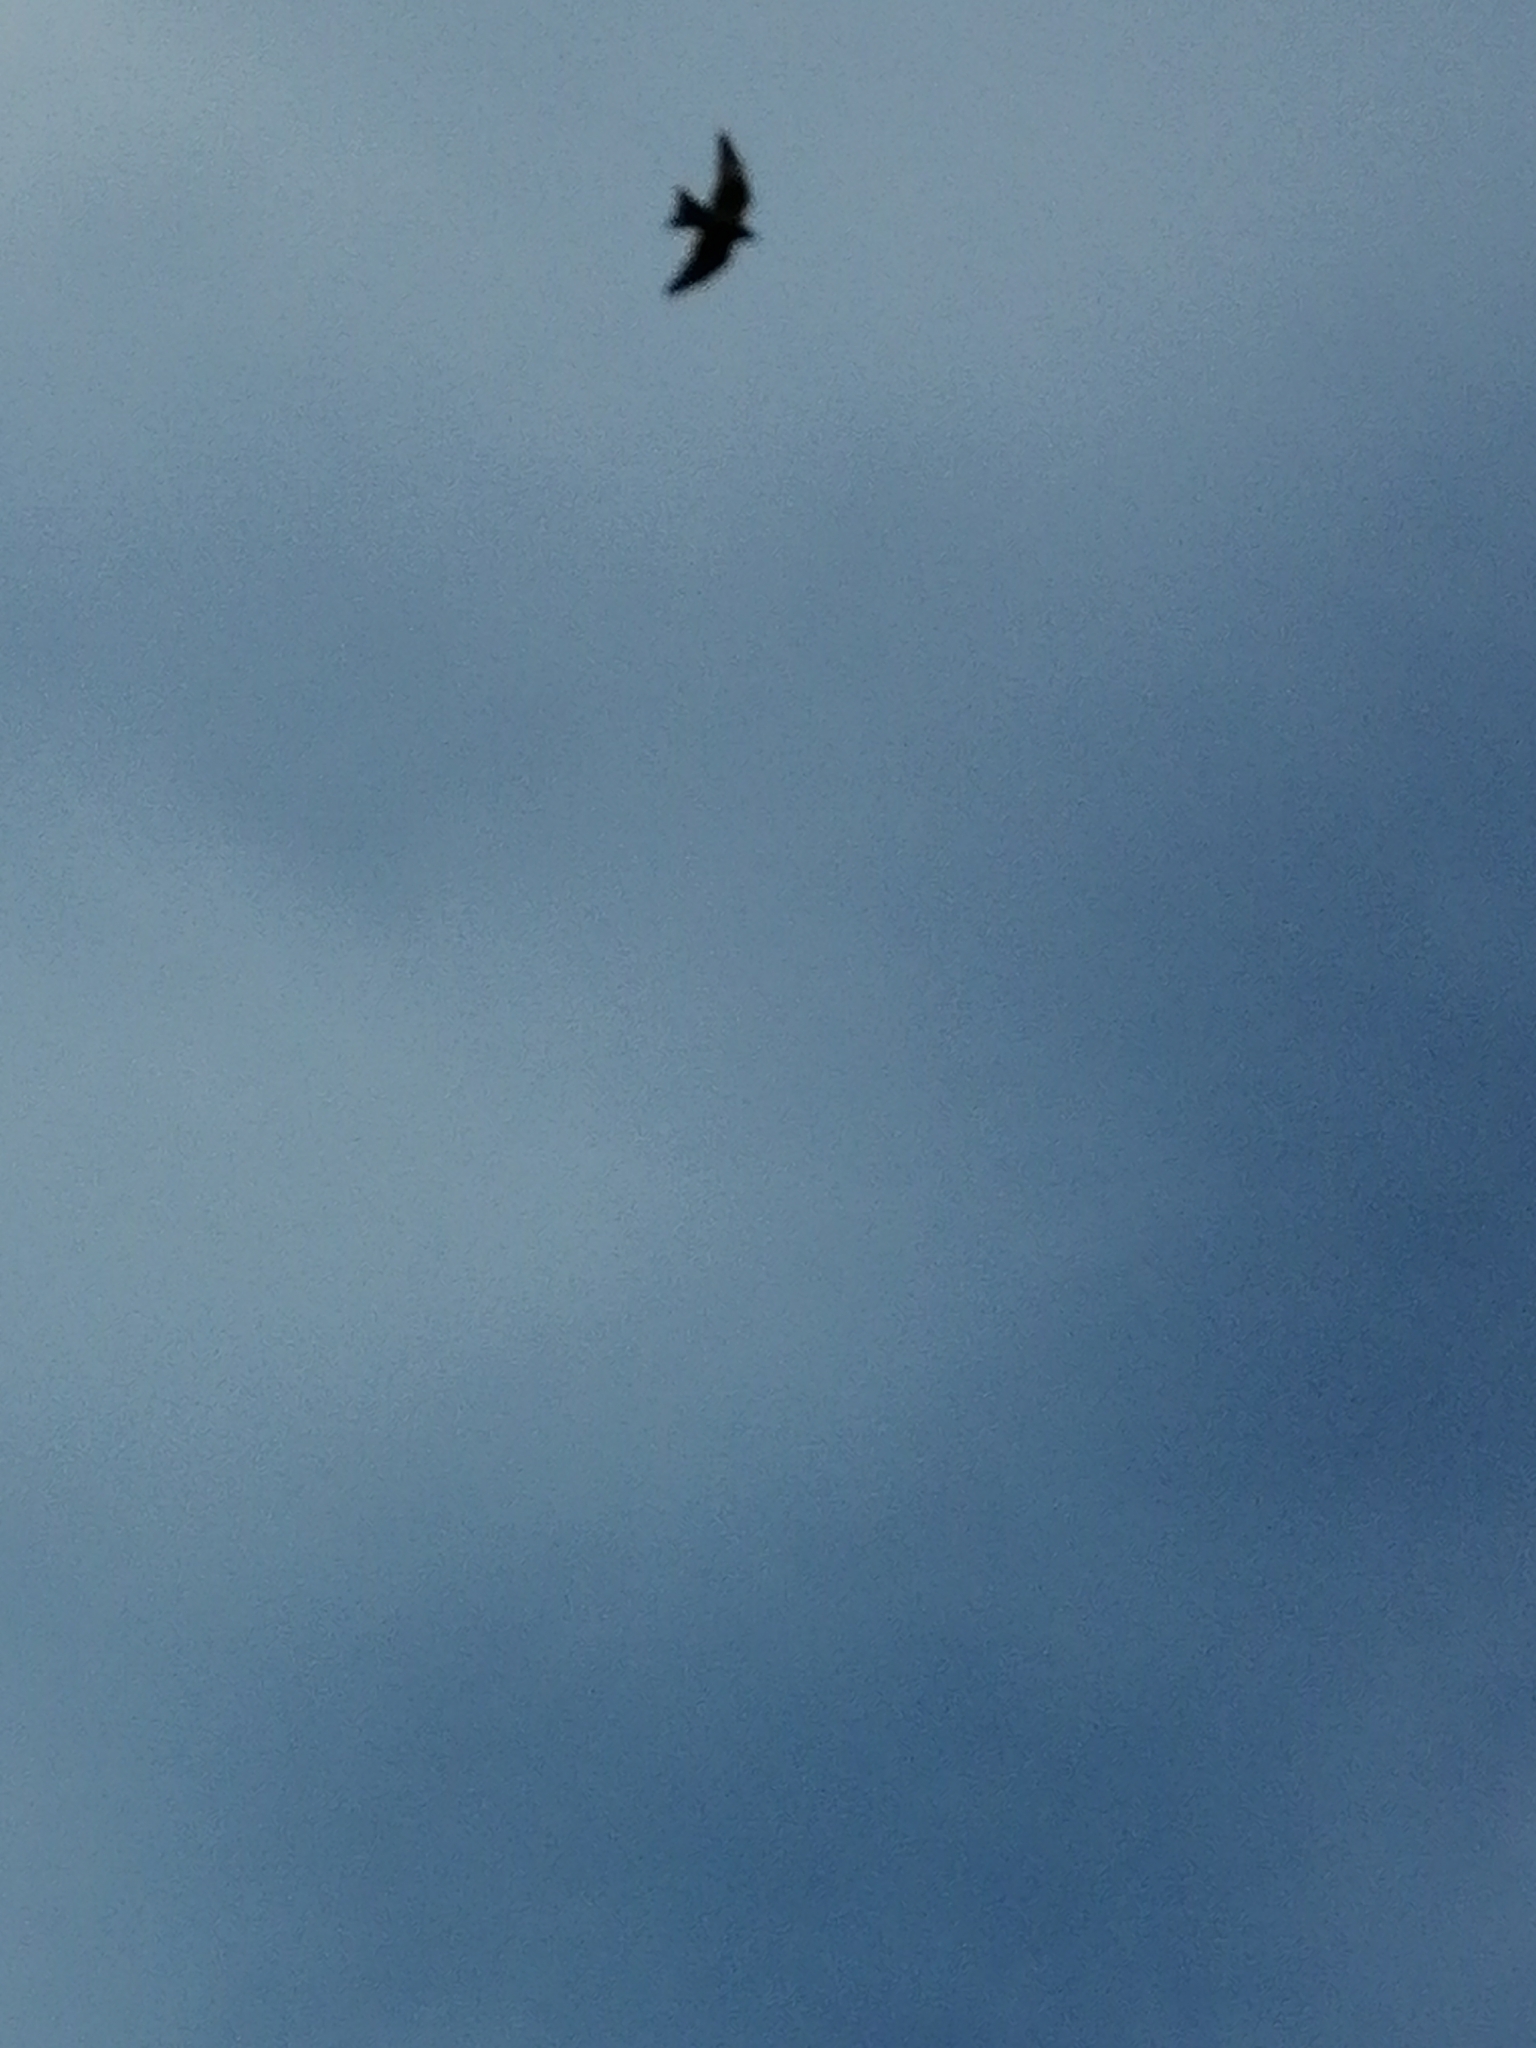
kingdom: Animalia
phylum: Chordata
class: Aves
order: Accipitriformes
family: Accipitridae
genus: Milvus
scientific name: Milvus migrans
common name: Black kite
